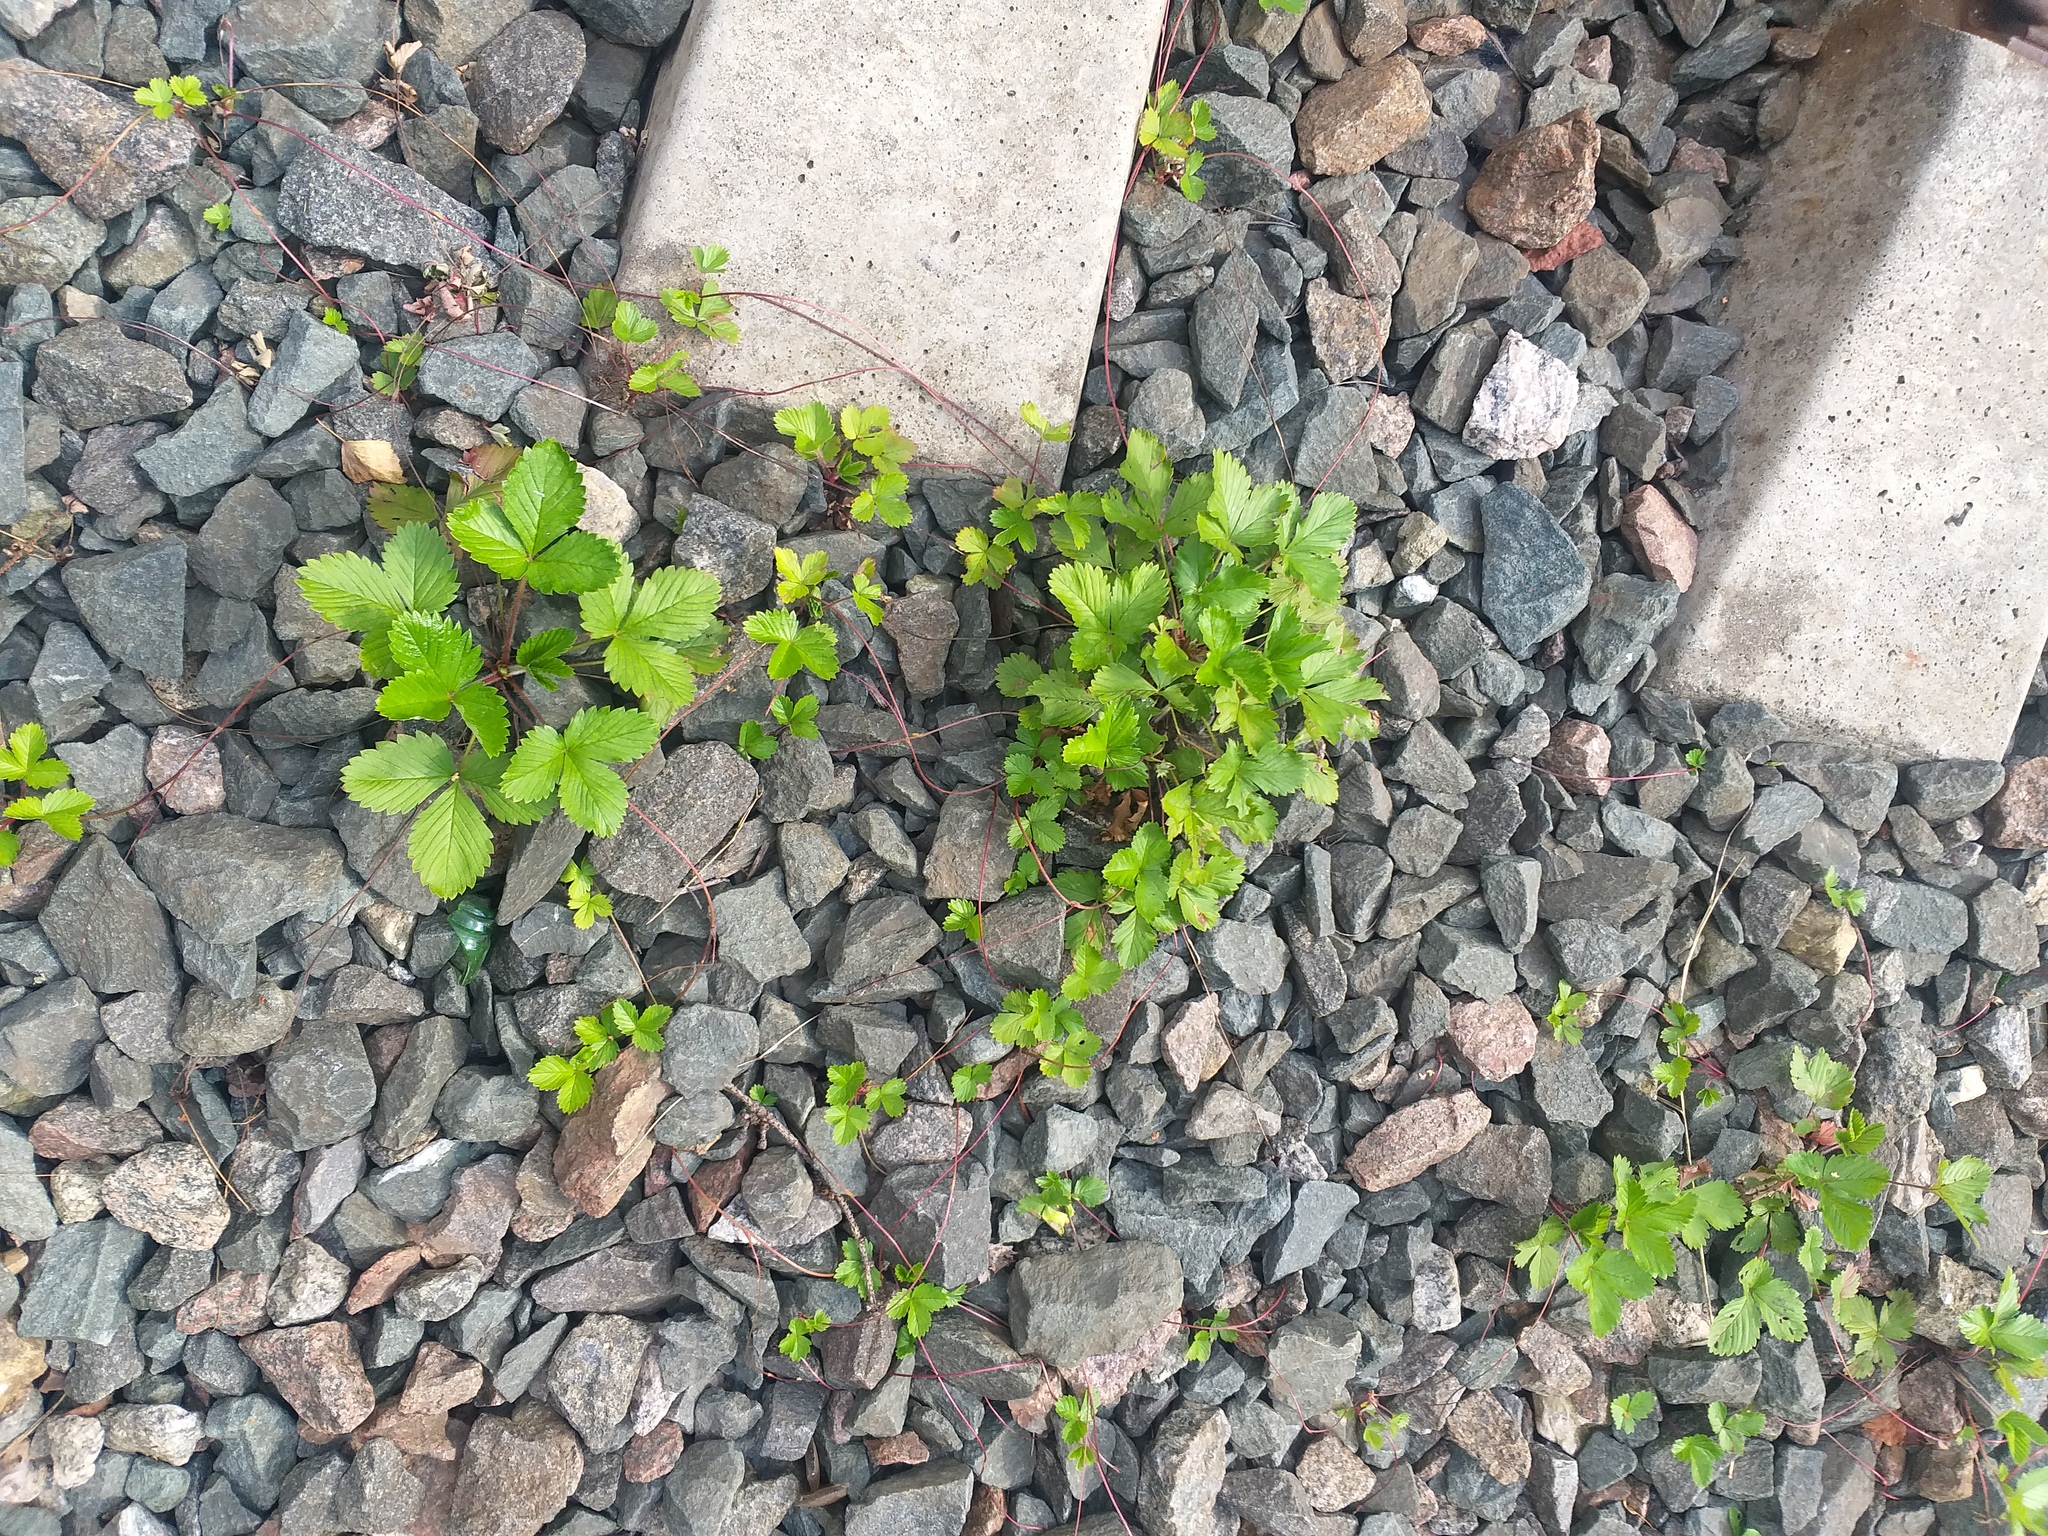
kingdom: Plantae
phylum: Tracheophyta
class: Magnoliopsida
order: Rosales
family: Rosaceae
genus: Fragaria
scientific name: Fragaria vesca
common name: Wild strawberry
